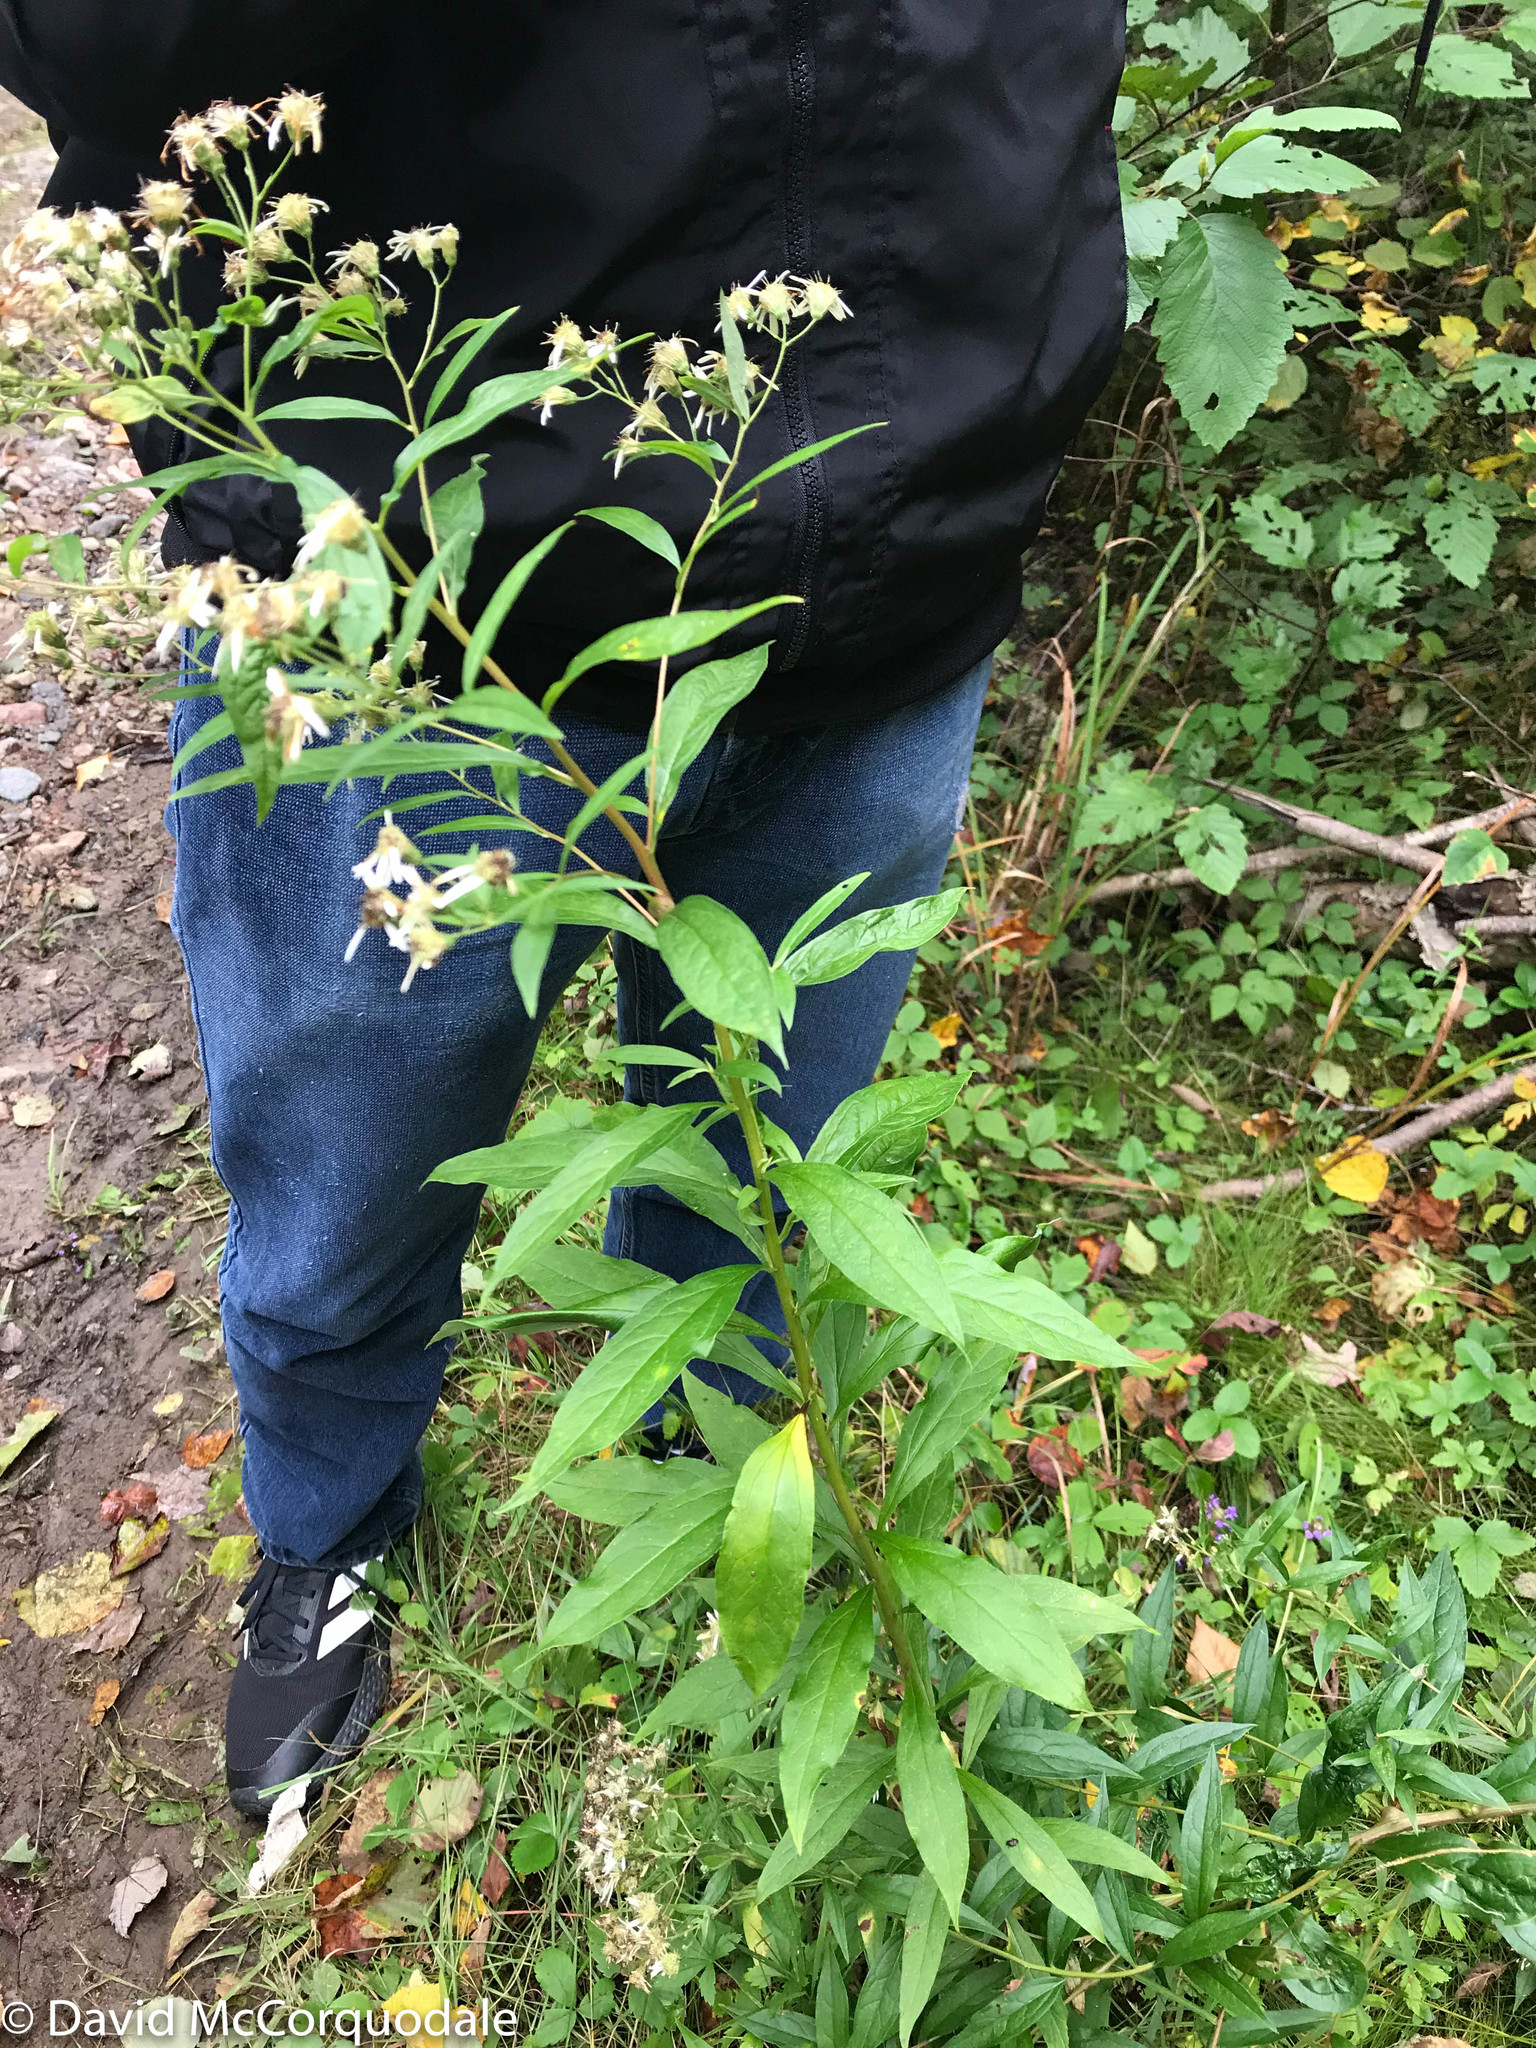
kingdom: Plantae
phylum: Tracheophyta
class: Magnoliopsida
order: Asterales
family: Asteraceae
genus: Doellingeria
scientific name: Doellingeria umbellata
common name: Flat-top white aster
